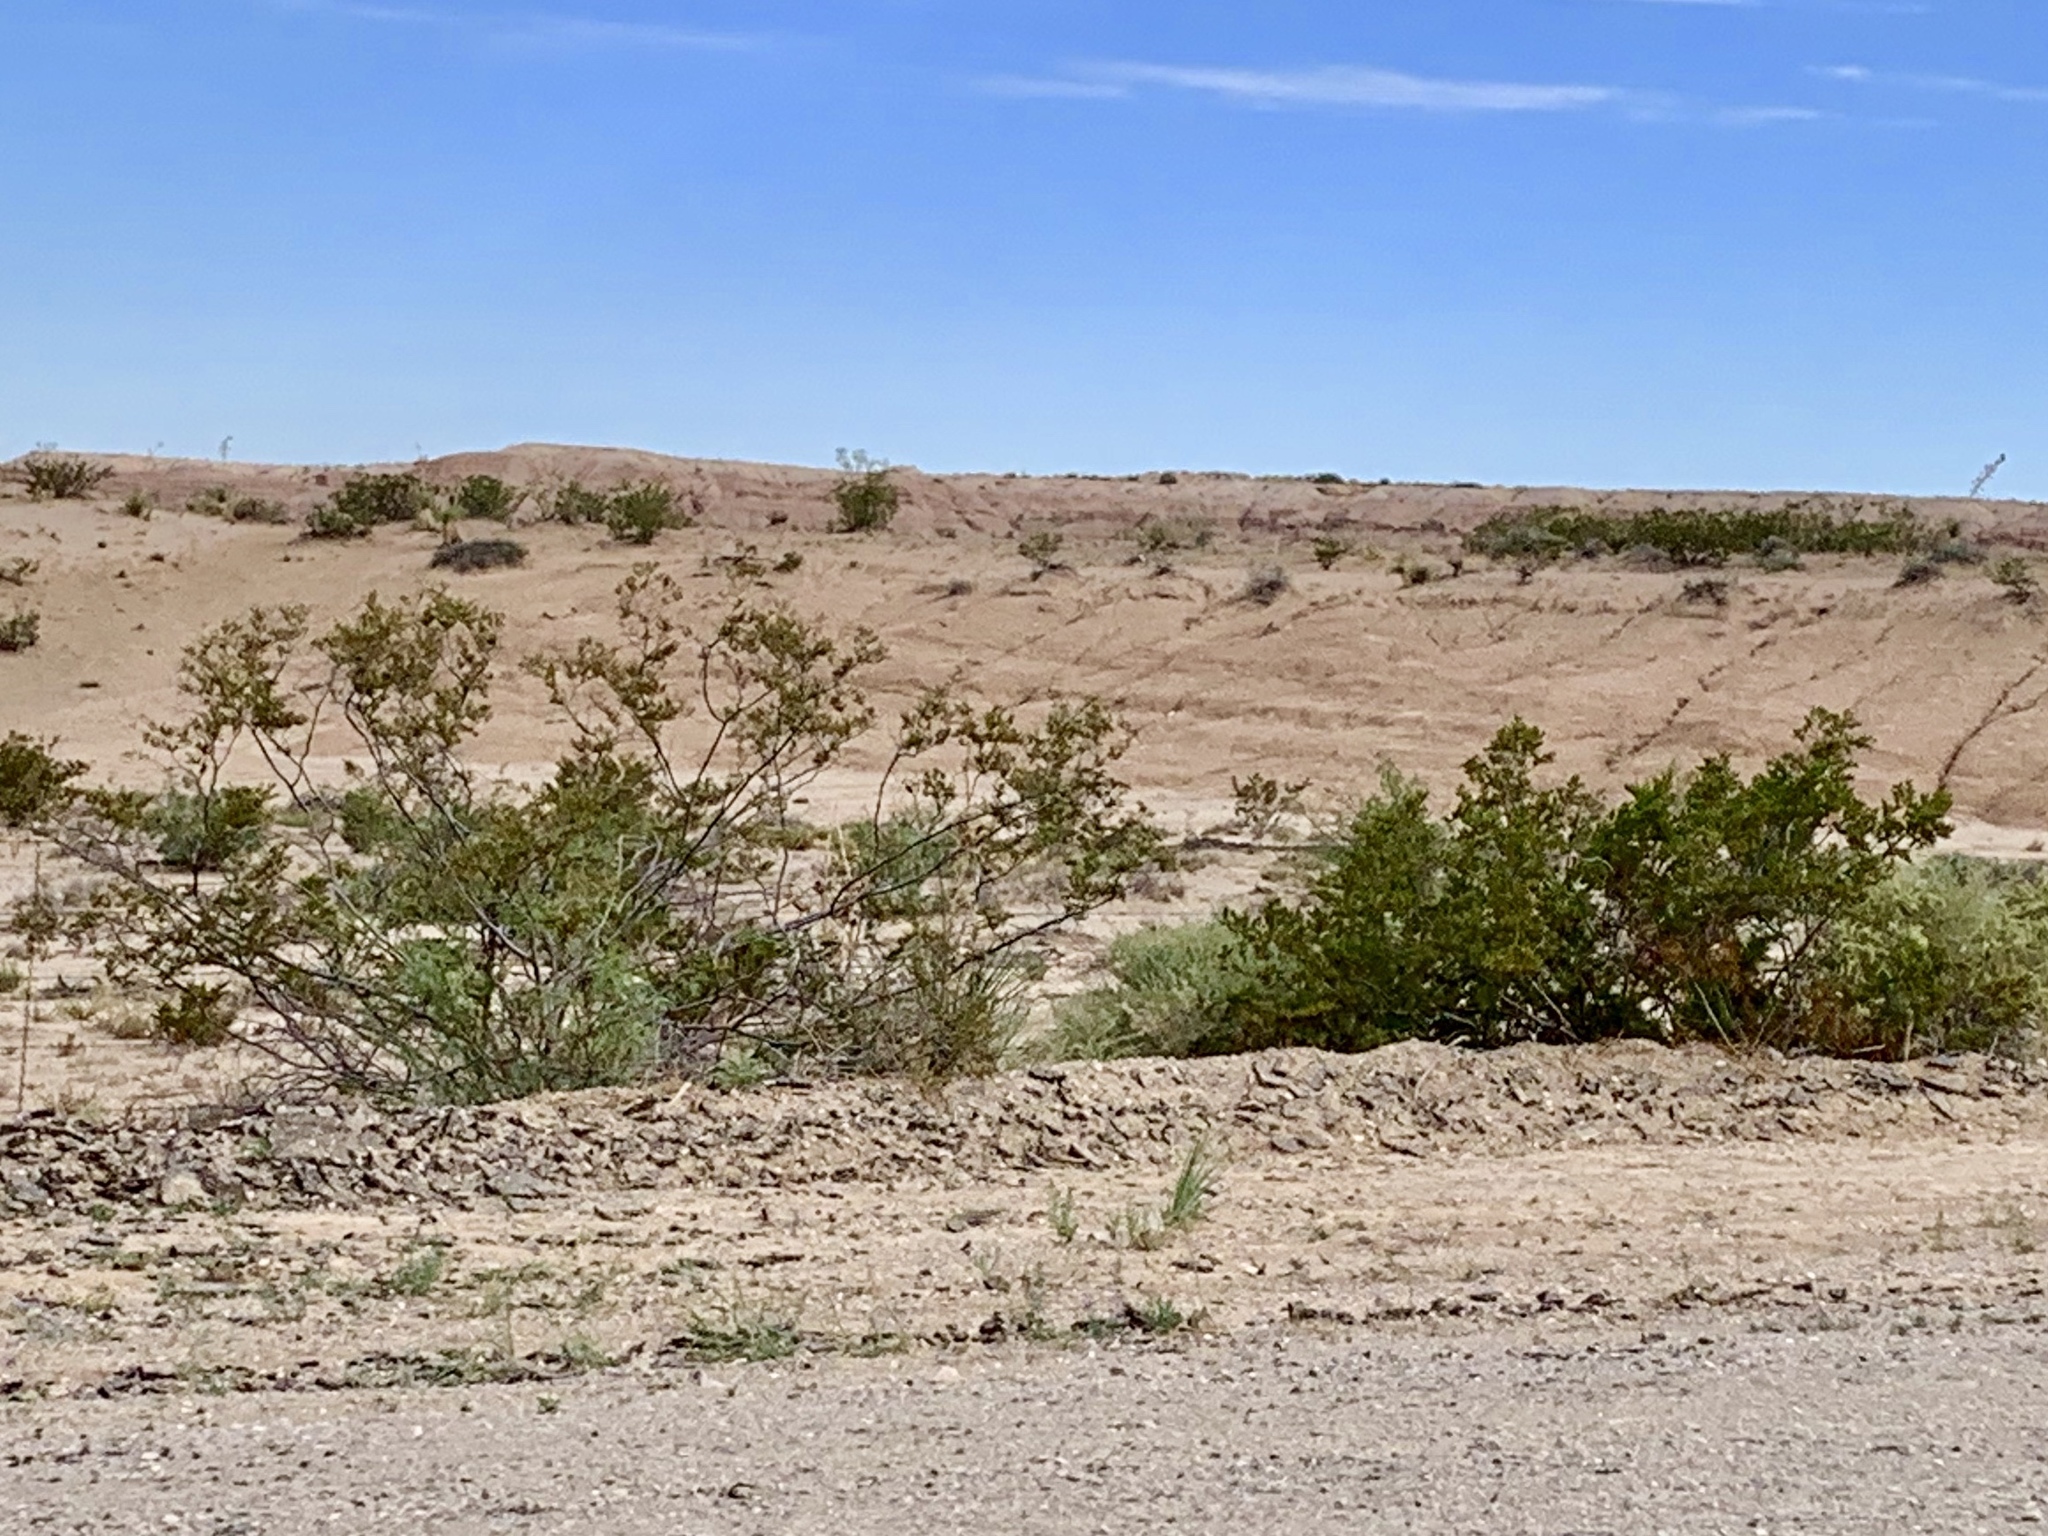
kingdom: Plantae
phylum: Tracheophyta
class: Magnoliopsida
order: Zygophyllales
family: Zygophyllaceae
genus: Larrea
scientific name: Larrea tridentata
